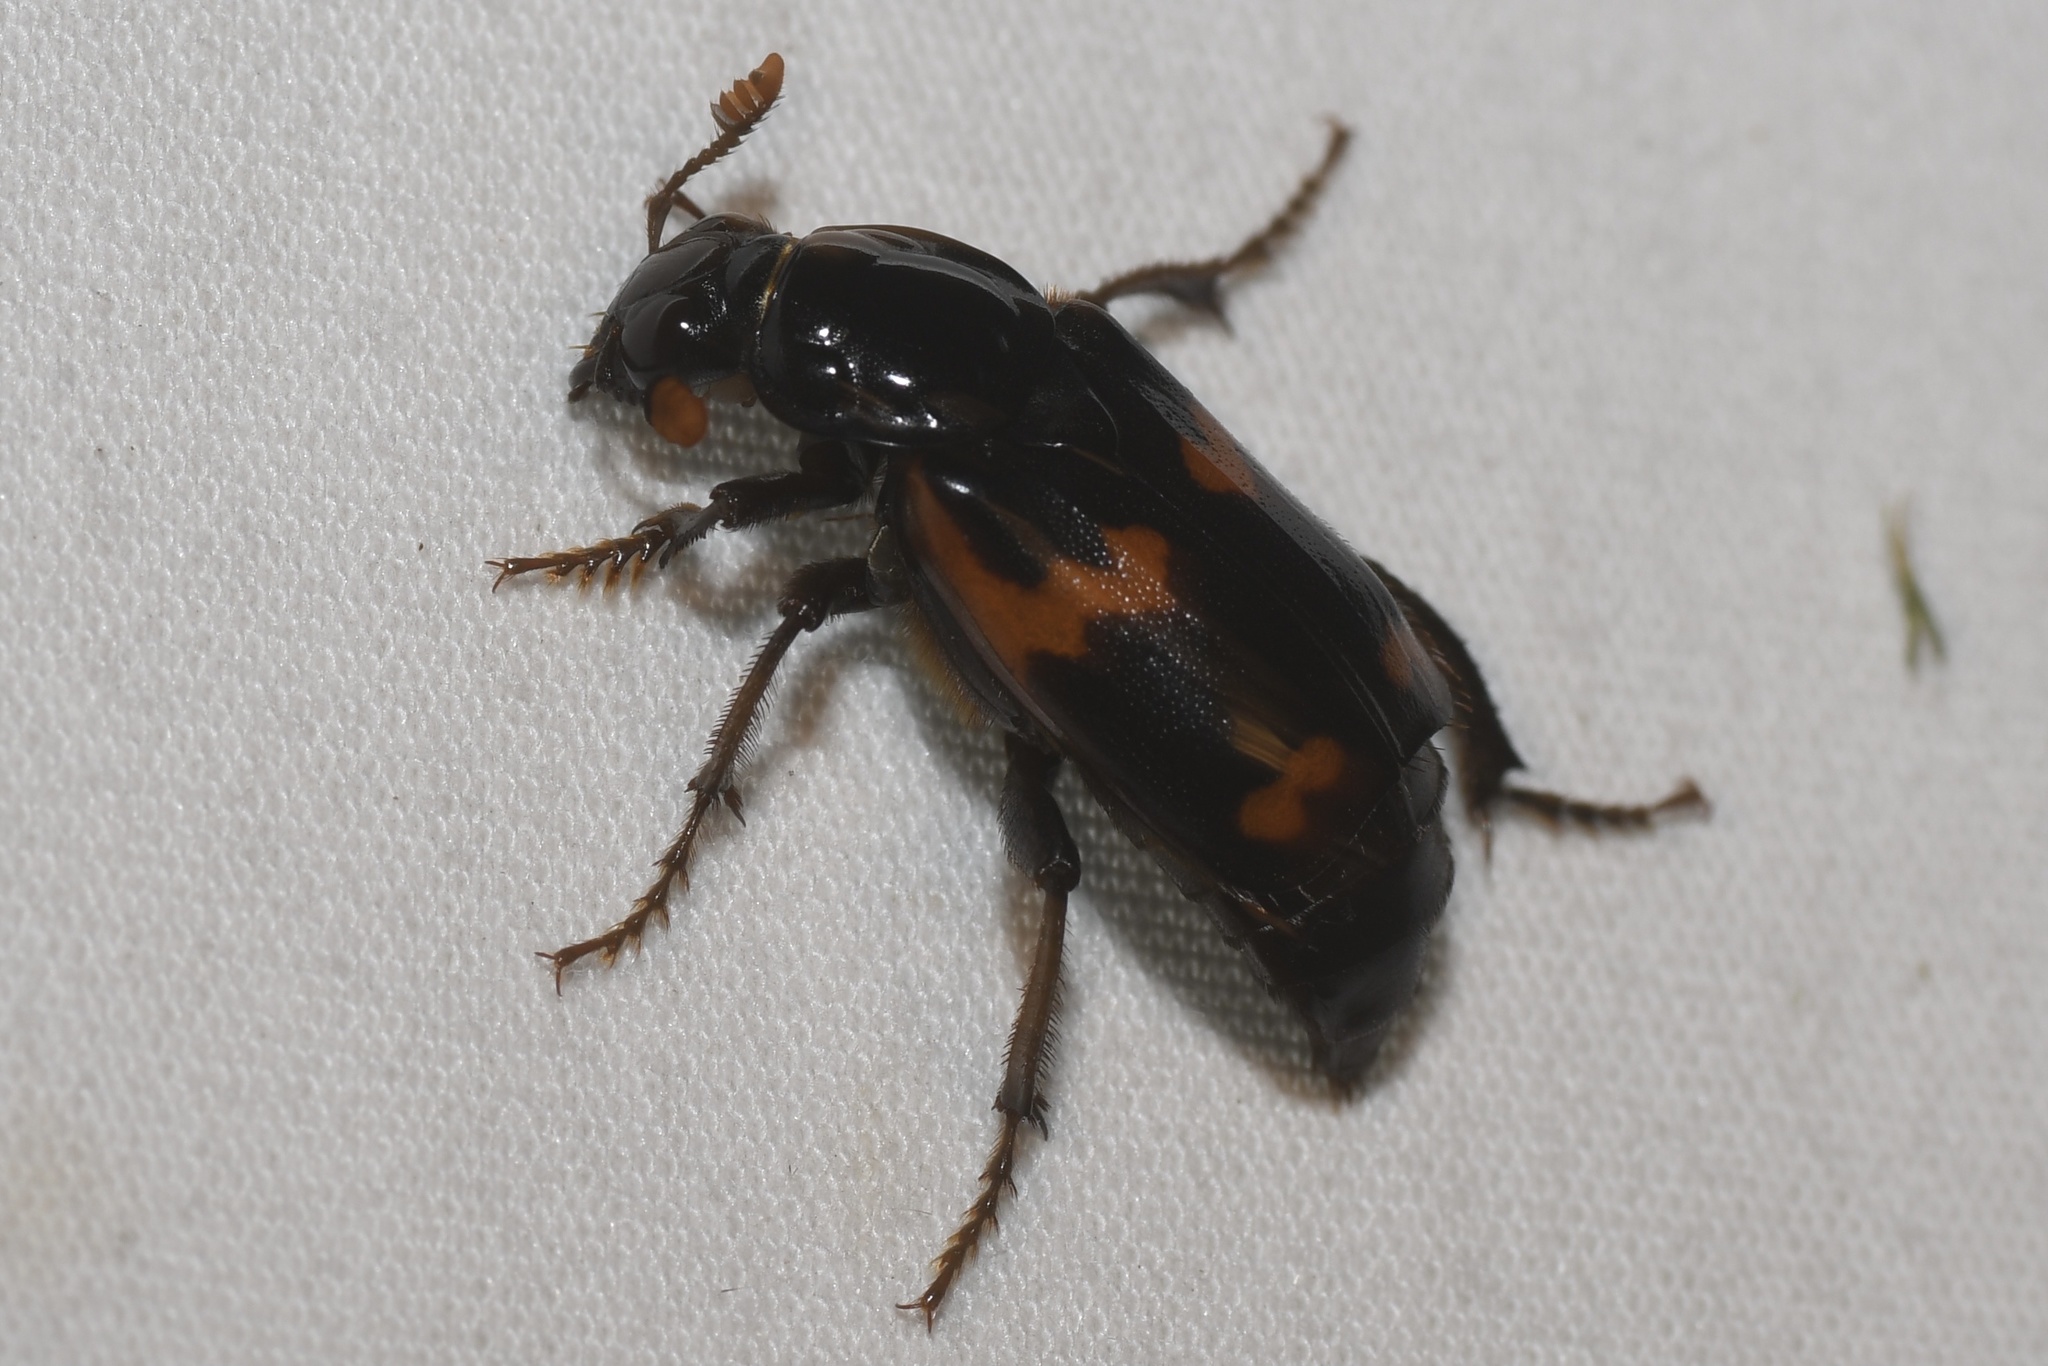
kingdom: Animalia
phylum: Arthropoda
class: Insecta
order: Coleoptera
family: Staphylinidae
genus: Nicrophorus
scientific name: Nicrophorus sayi
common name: Say's burying beetle
